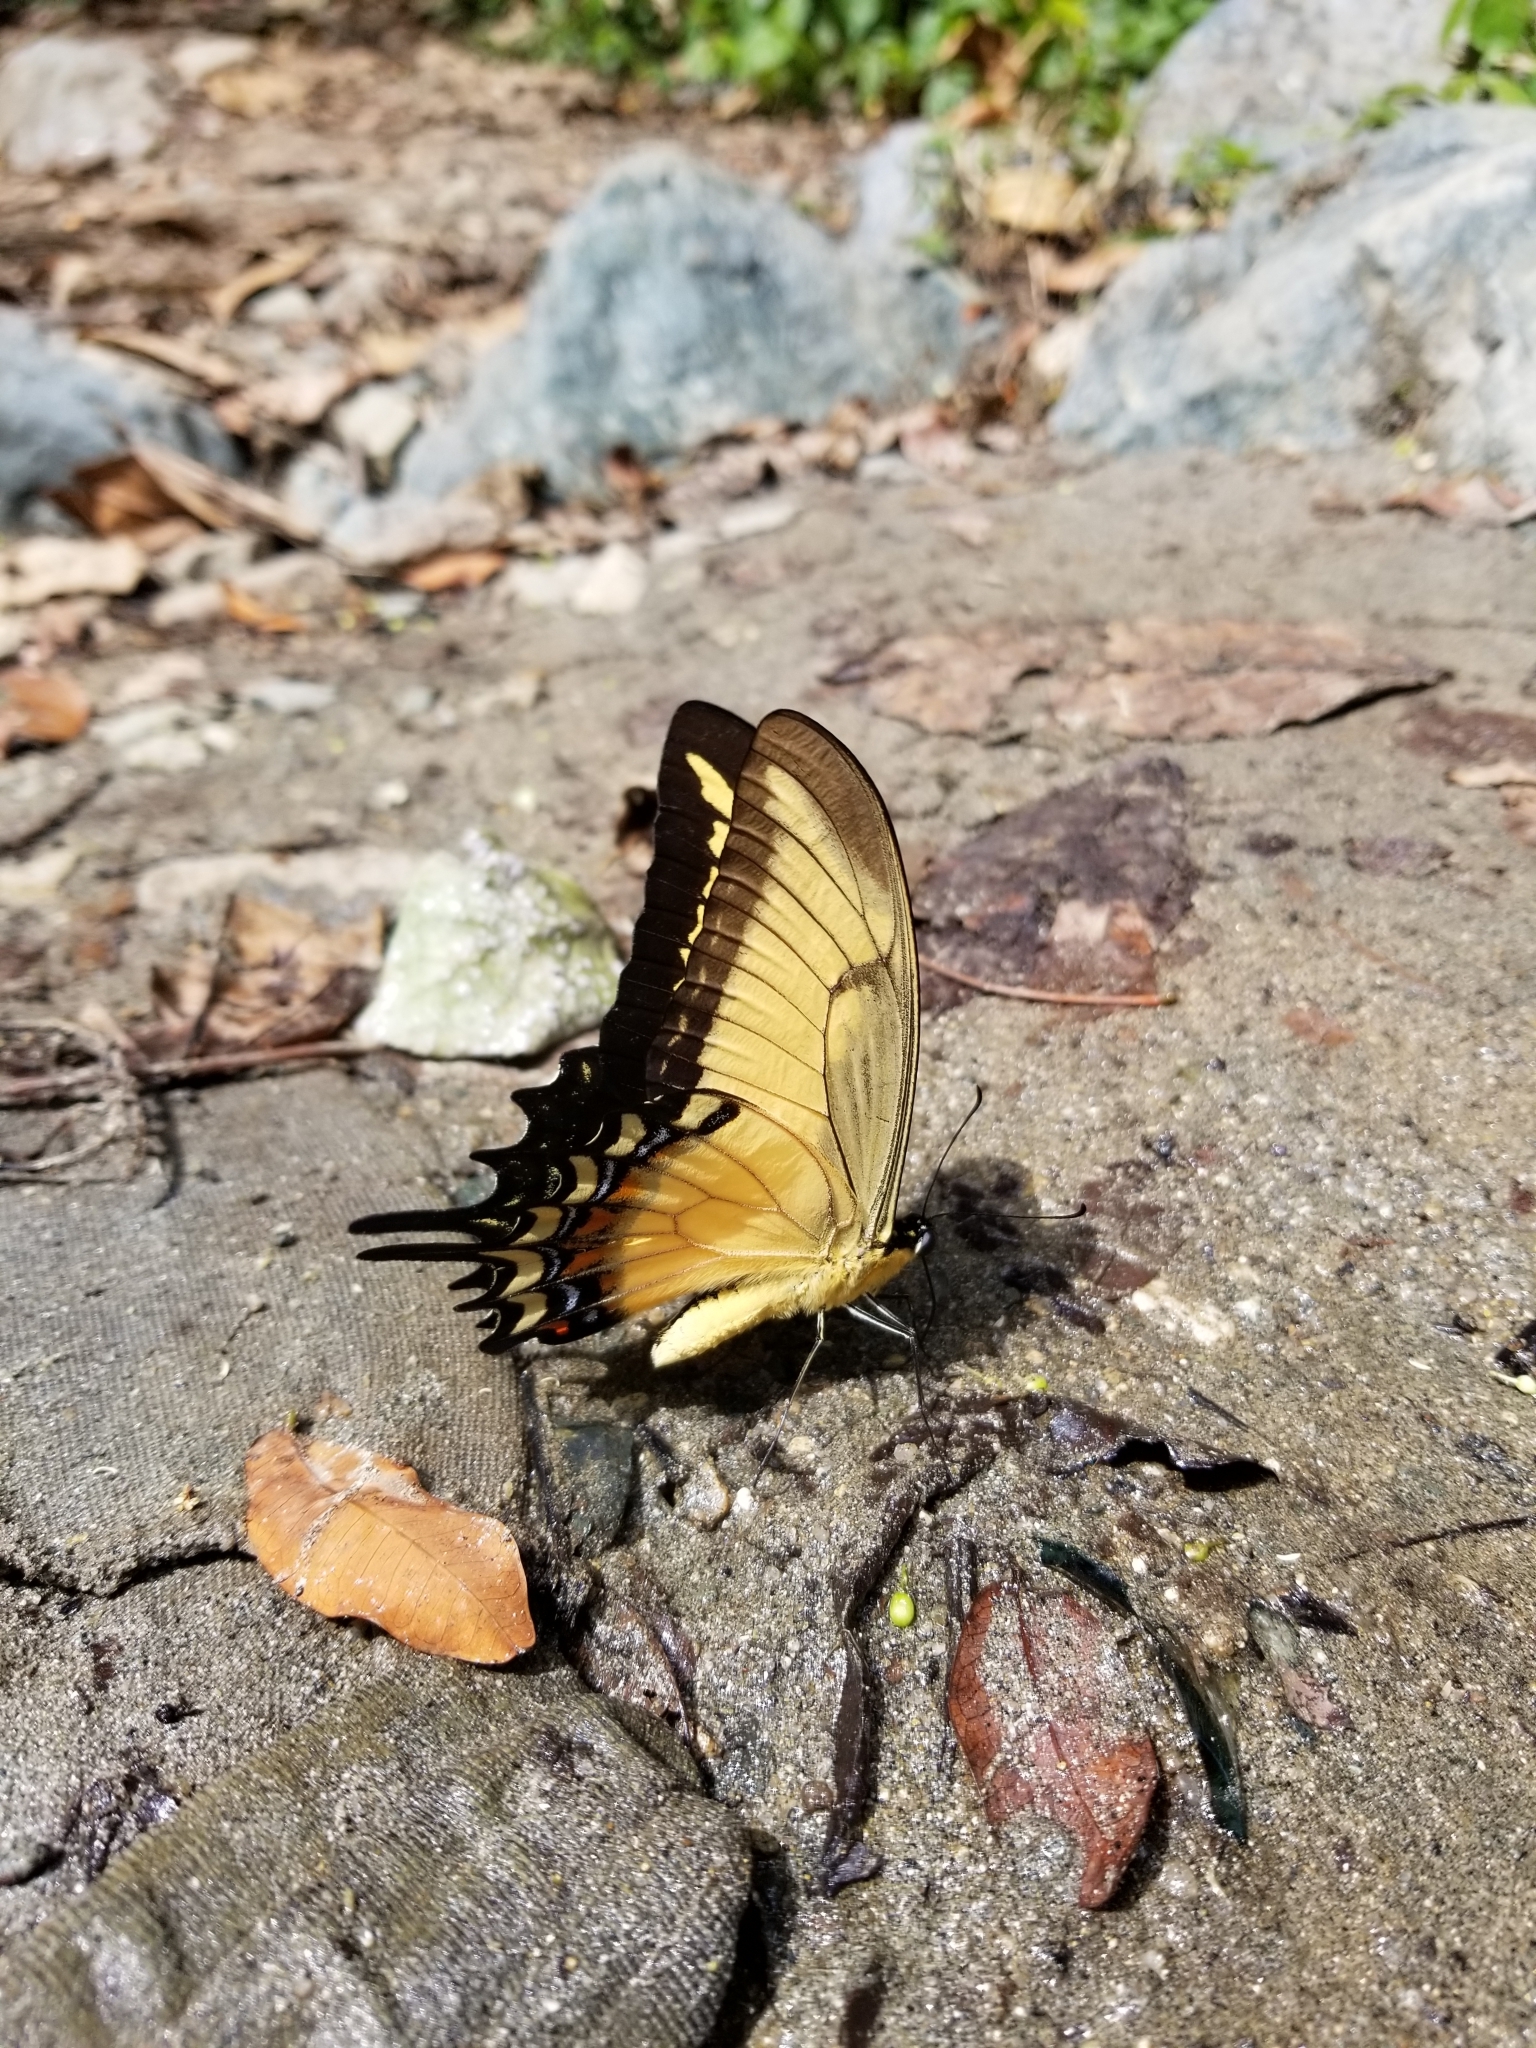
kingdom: Animalia
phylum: Arthropoda
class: Insecta
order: Lepidoptera
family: Papilionidae
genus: Papilio
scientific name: Papilio androgeus
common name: Androgeus swallowtail
